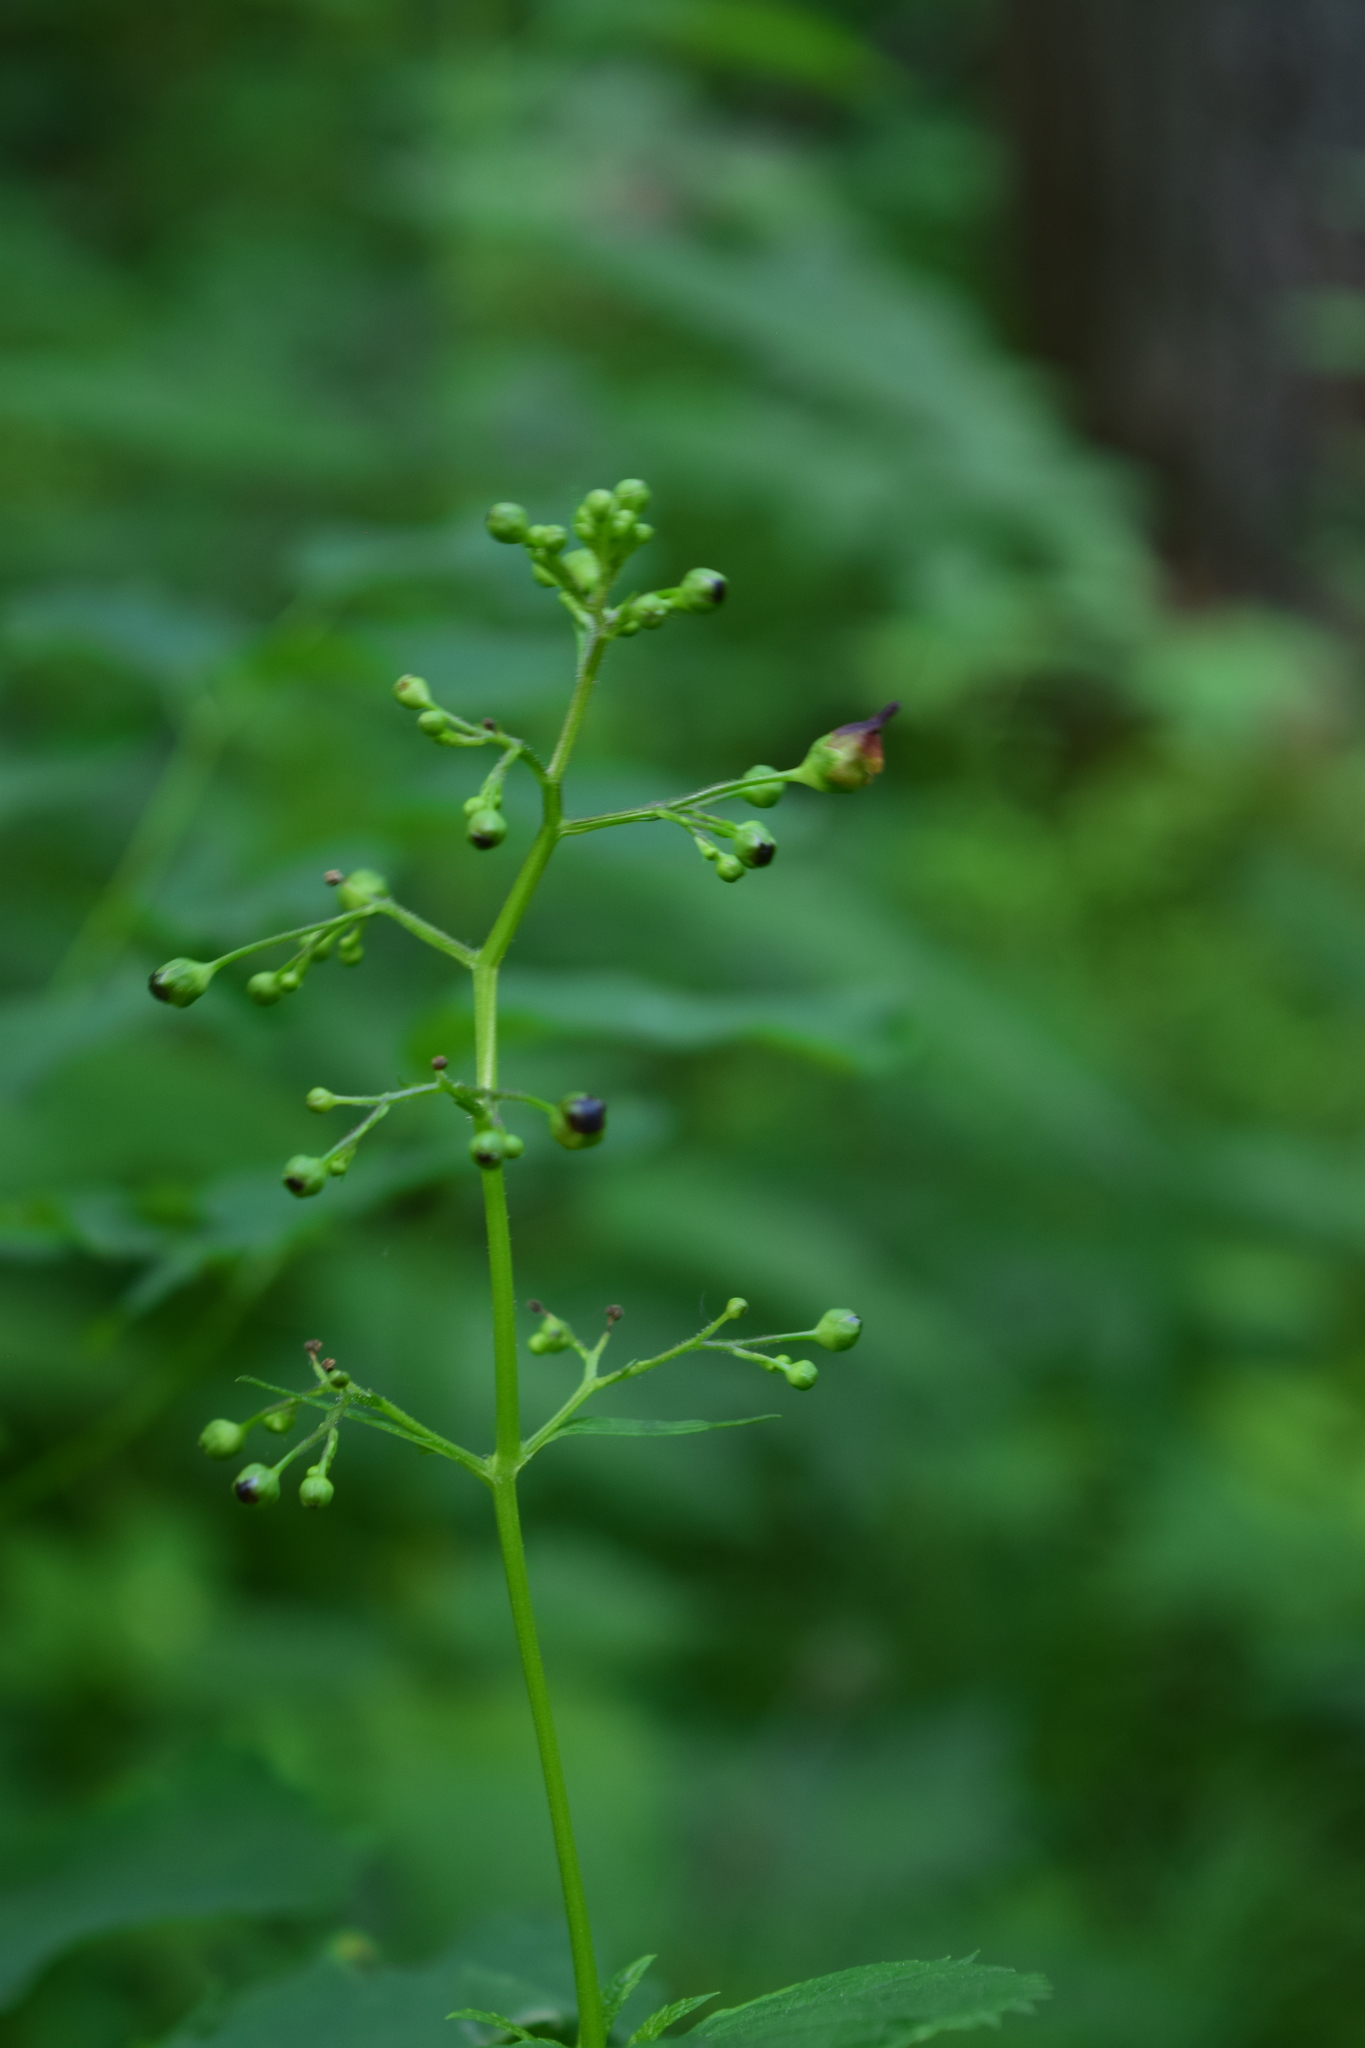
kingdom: Plantae
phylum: Tracheophyta
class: Magnoliopsida
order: Lamiales
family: Scrophulariaceae
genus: Scrophularia
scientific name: Scrophularia nodosa
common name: Common figwort
